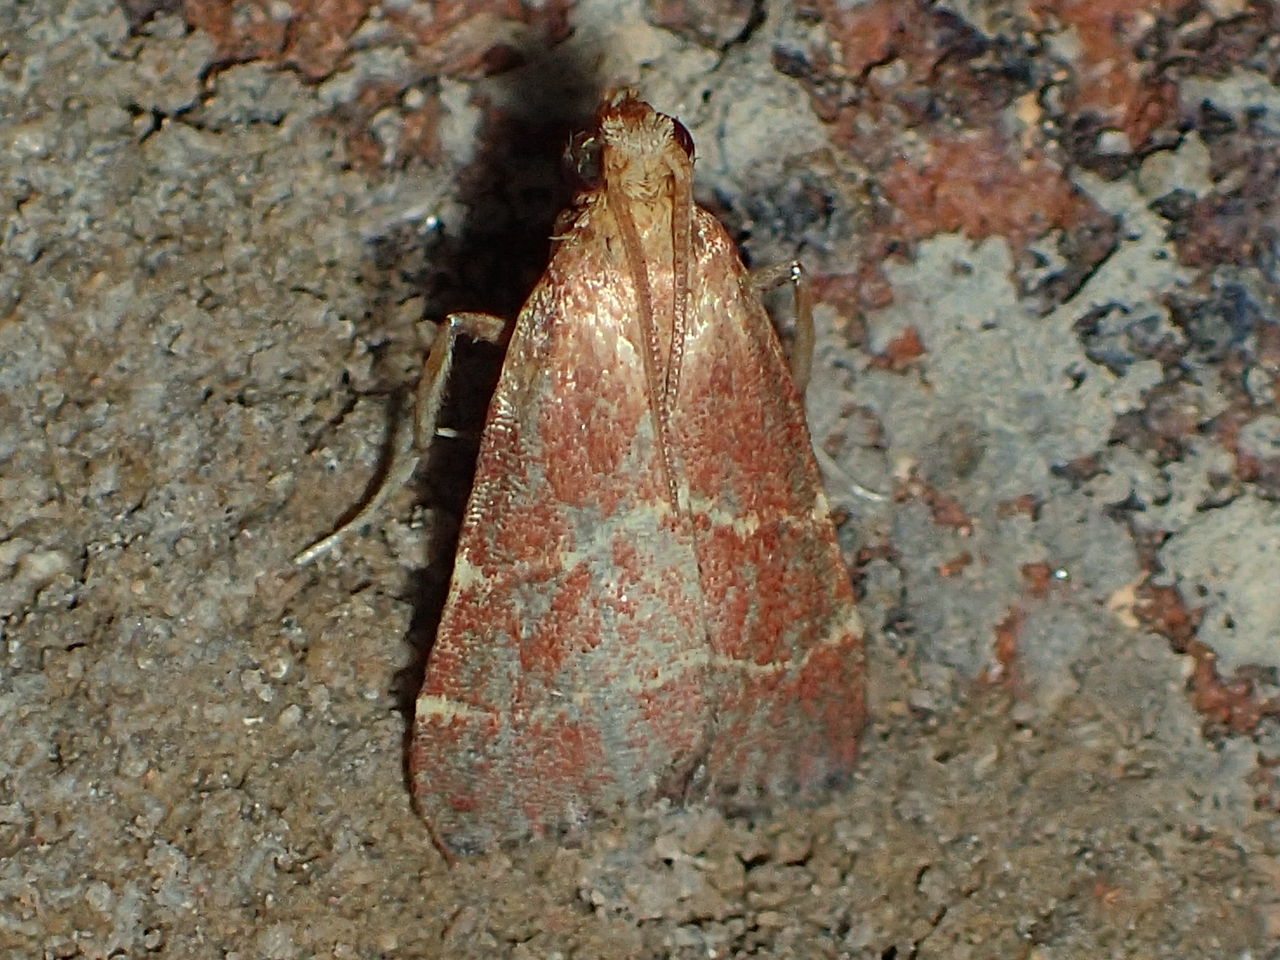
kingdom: Animalia
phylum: Arthropoda
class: Insecta
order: Lepidoptera
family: Pyralidae
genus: Arta
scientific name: Arta statalis
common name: Posturing arta moth
